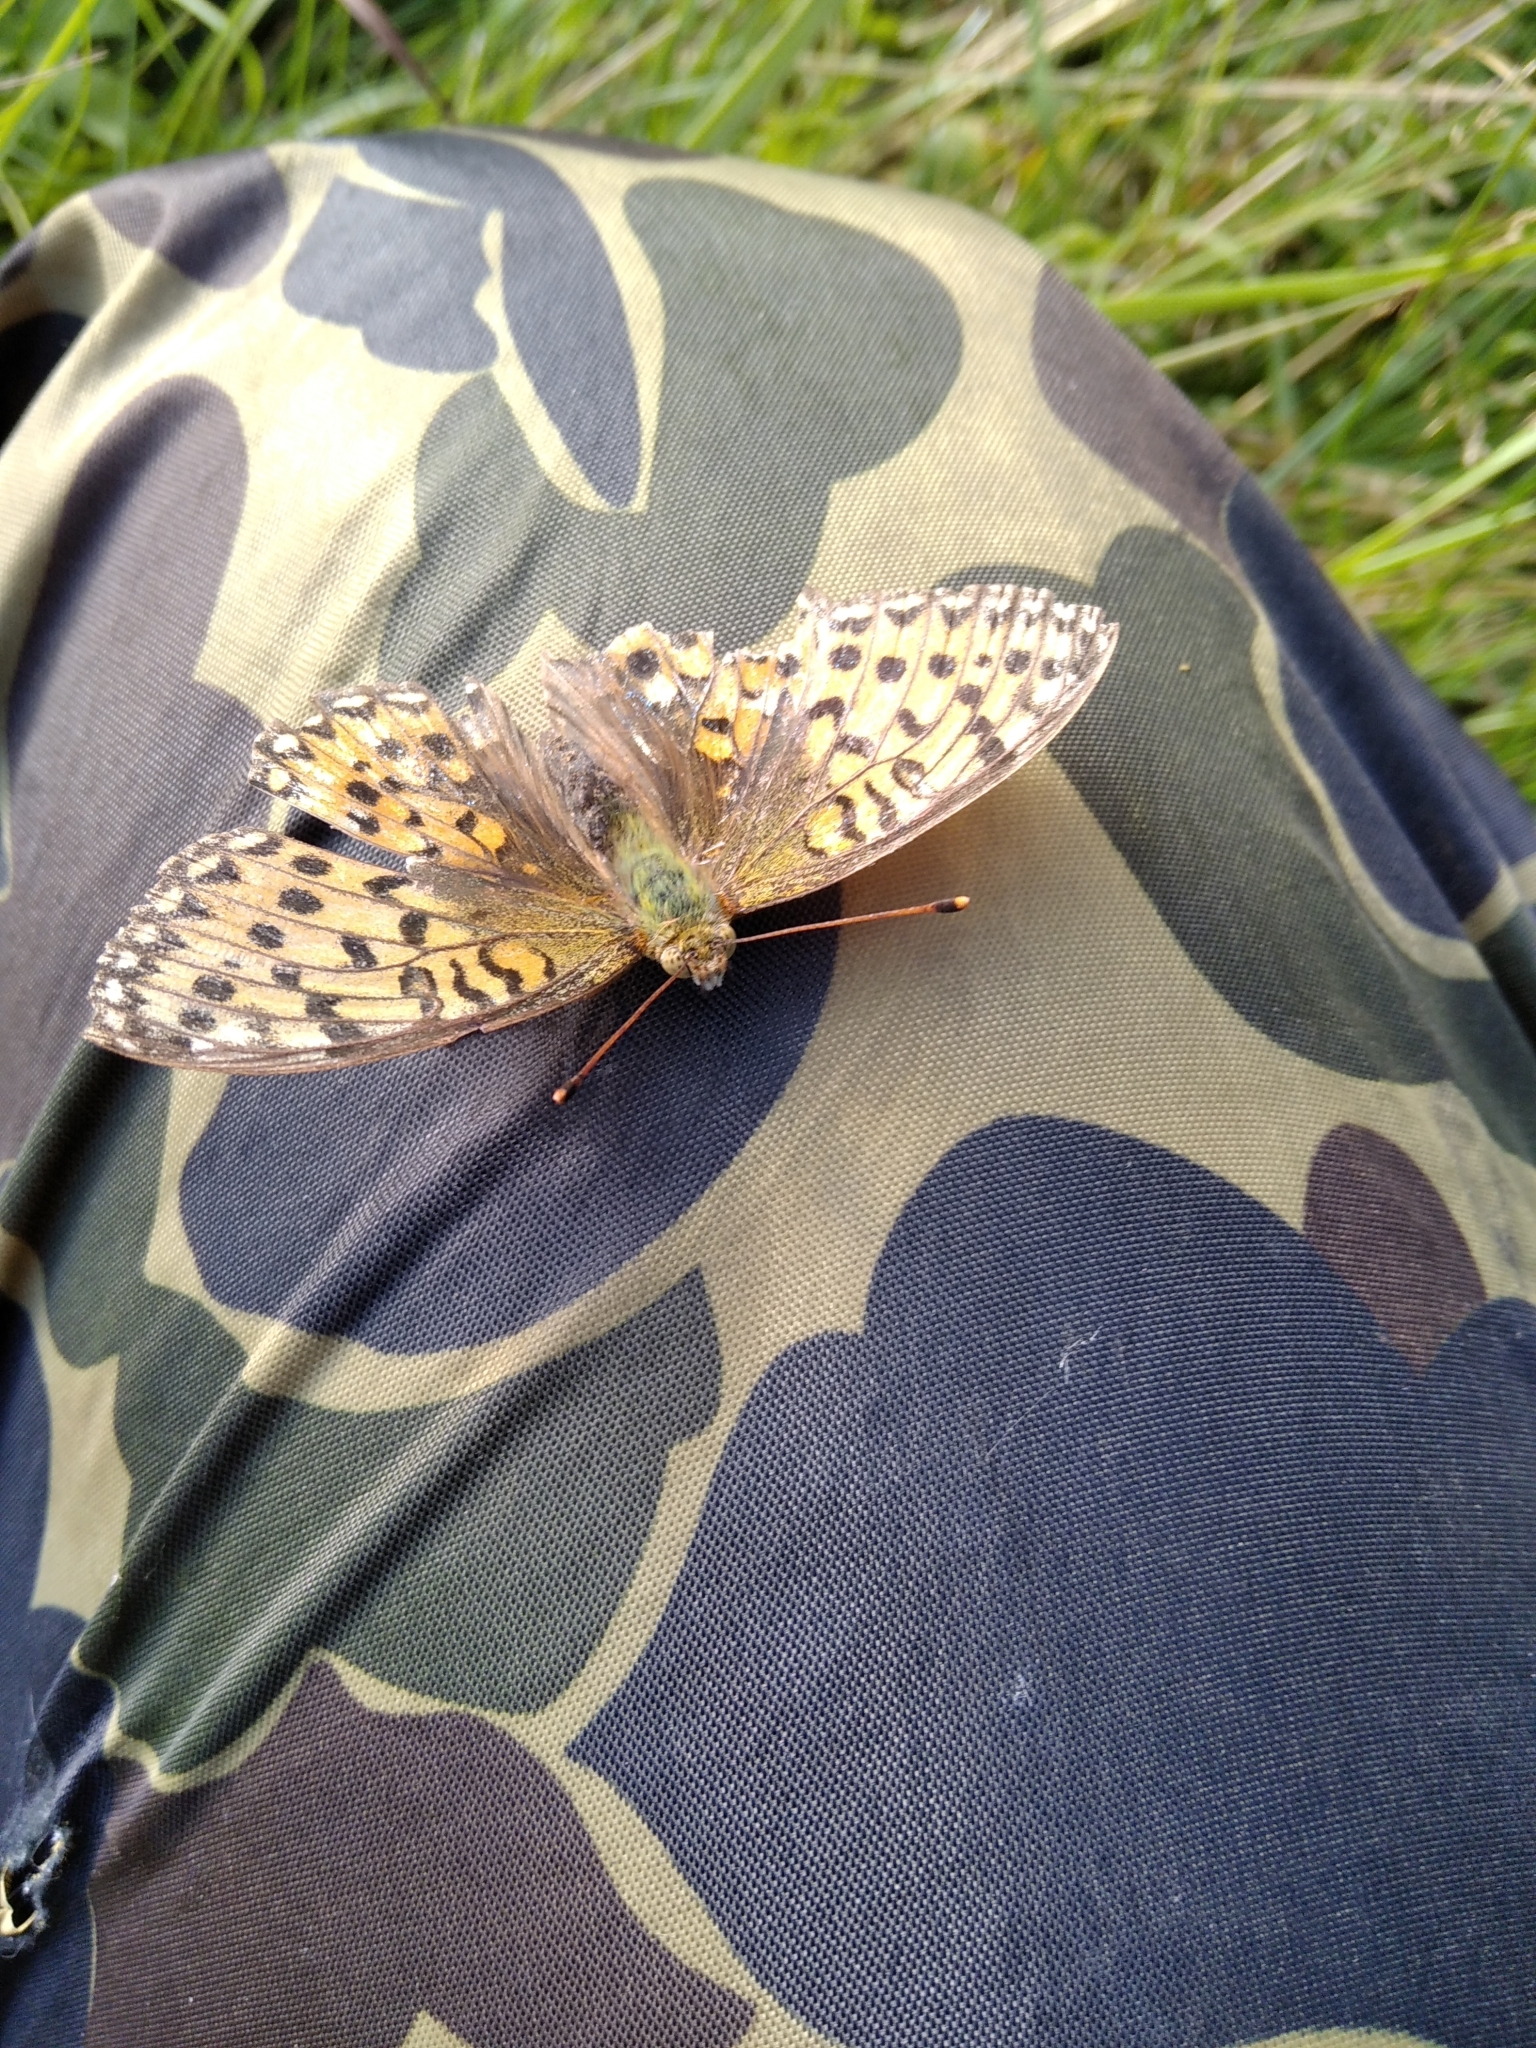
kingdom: Animalia
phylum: Arthropoda
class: Insecta
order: Lepidoptera
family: Nymphalidae
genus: Speyeria
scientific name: Speyeria aglaja
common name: Dark green fritillary
